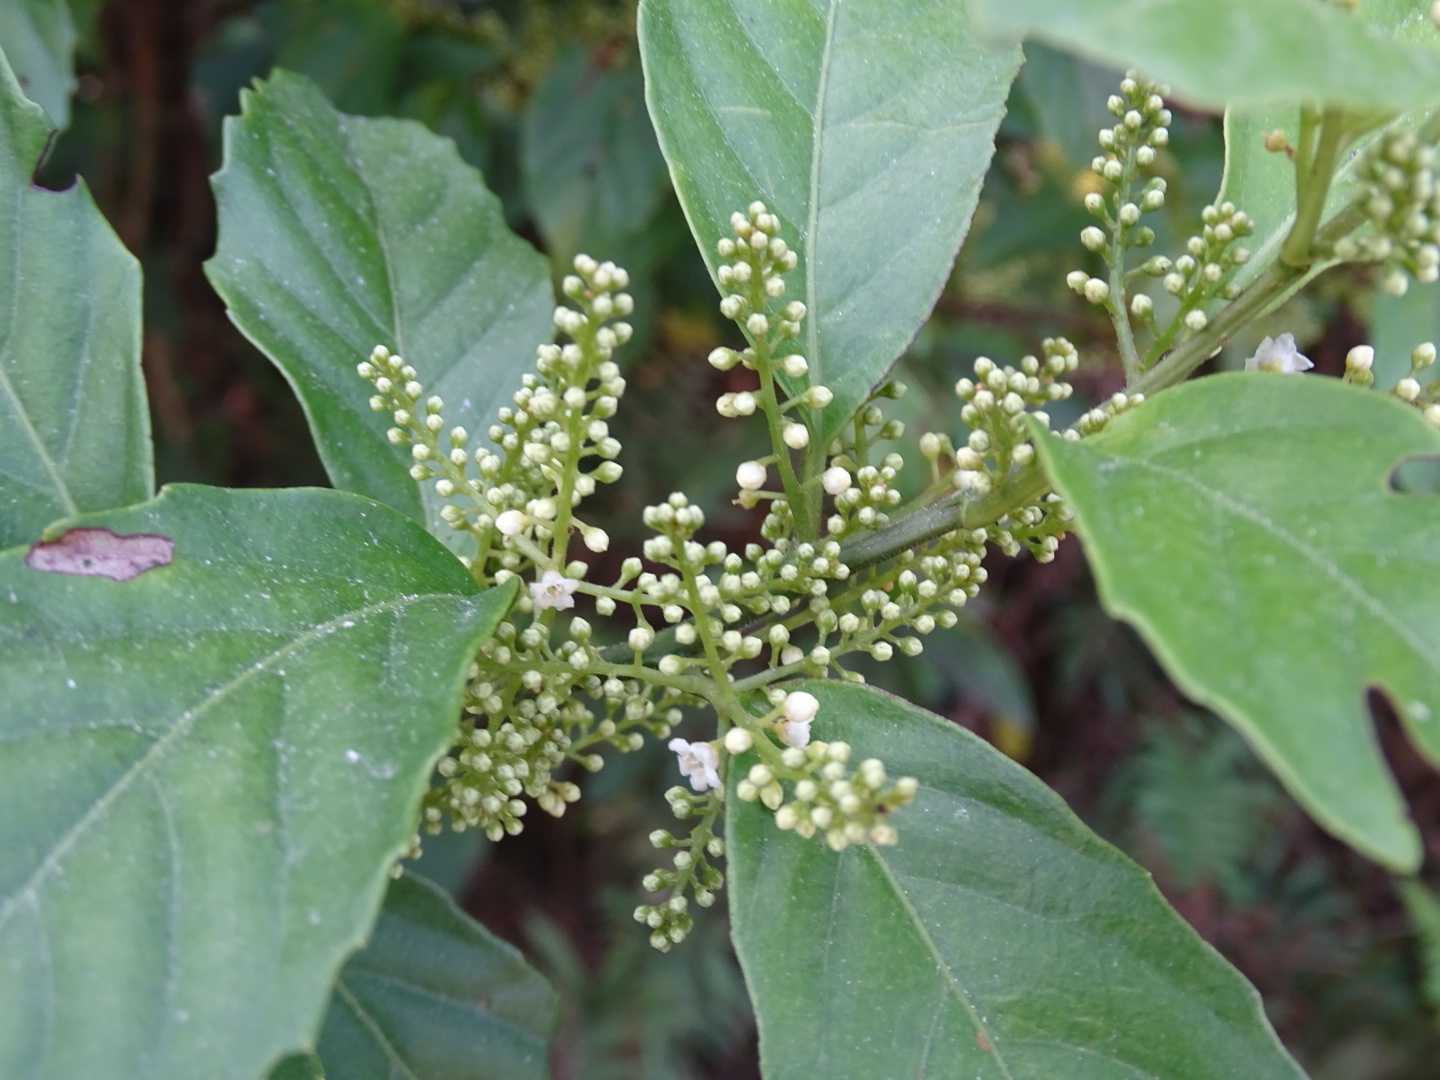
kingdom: Plantae
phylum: Tracheophyta
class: Magnoliopsida
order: Ericales
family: Primulaceae
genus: Maesa
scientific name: Maesa perlaria
